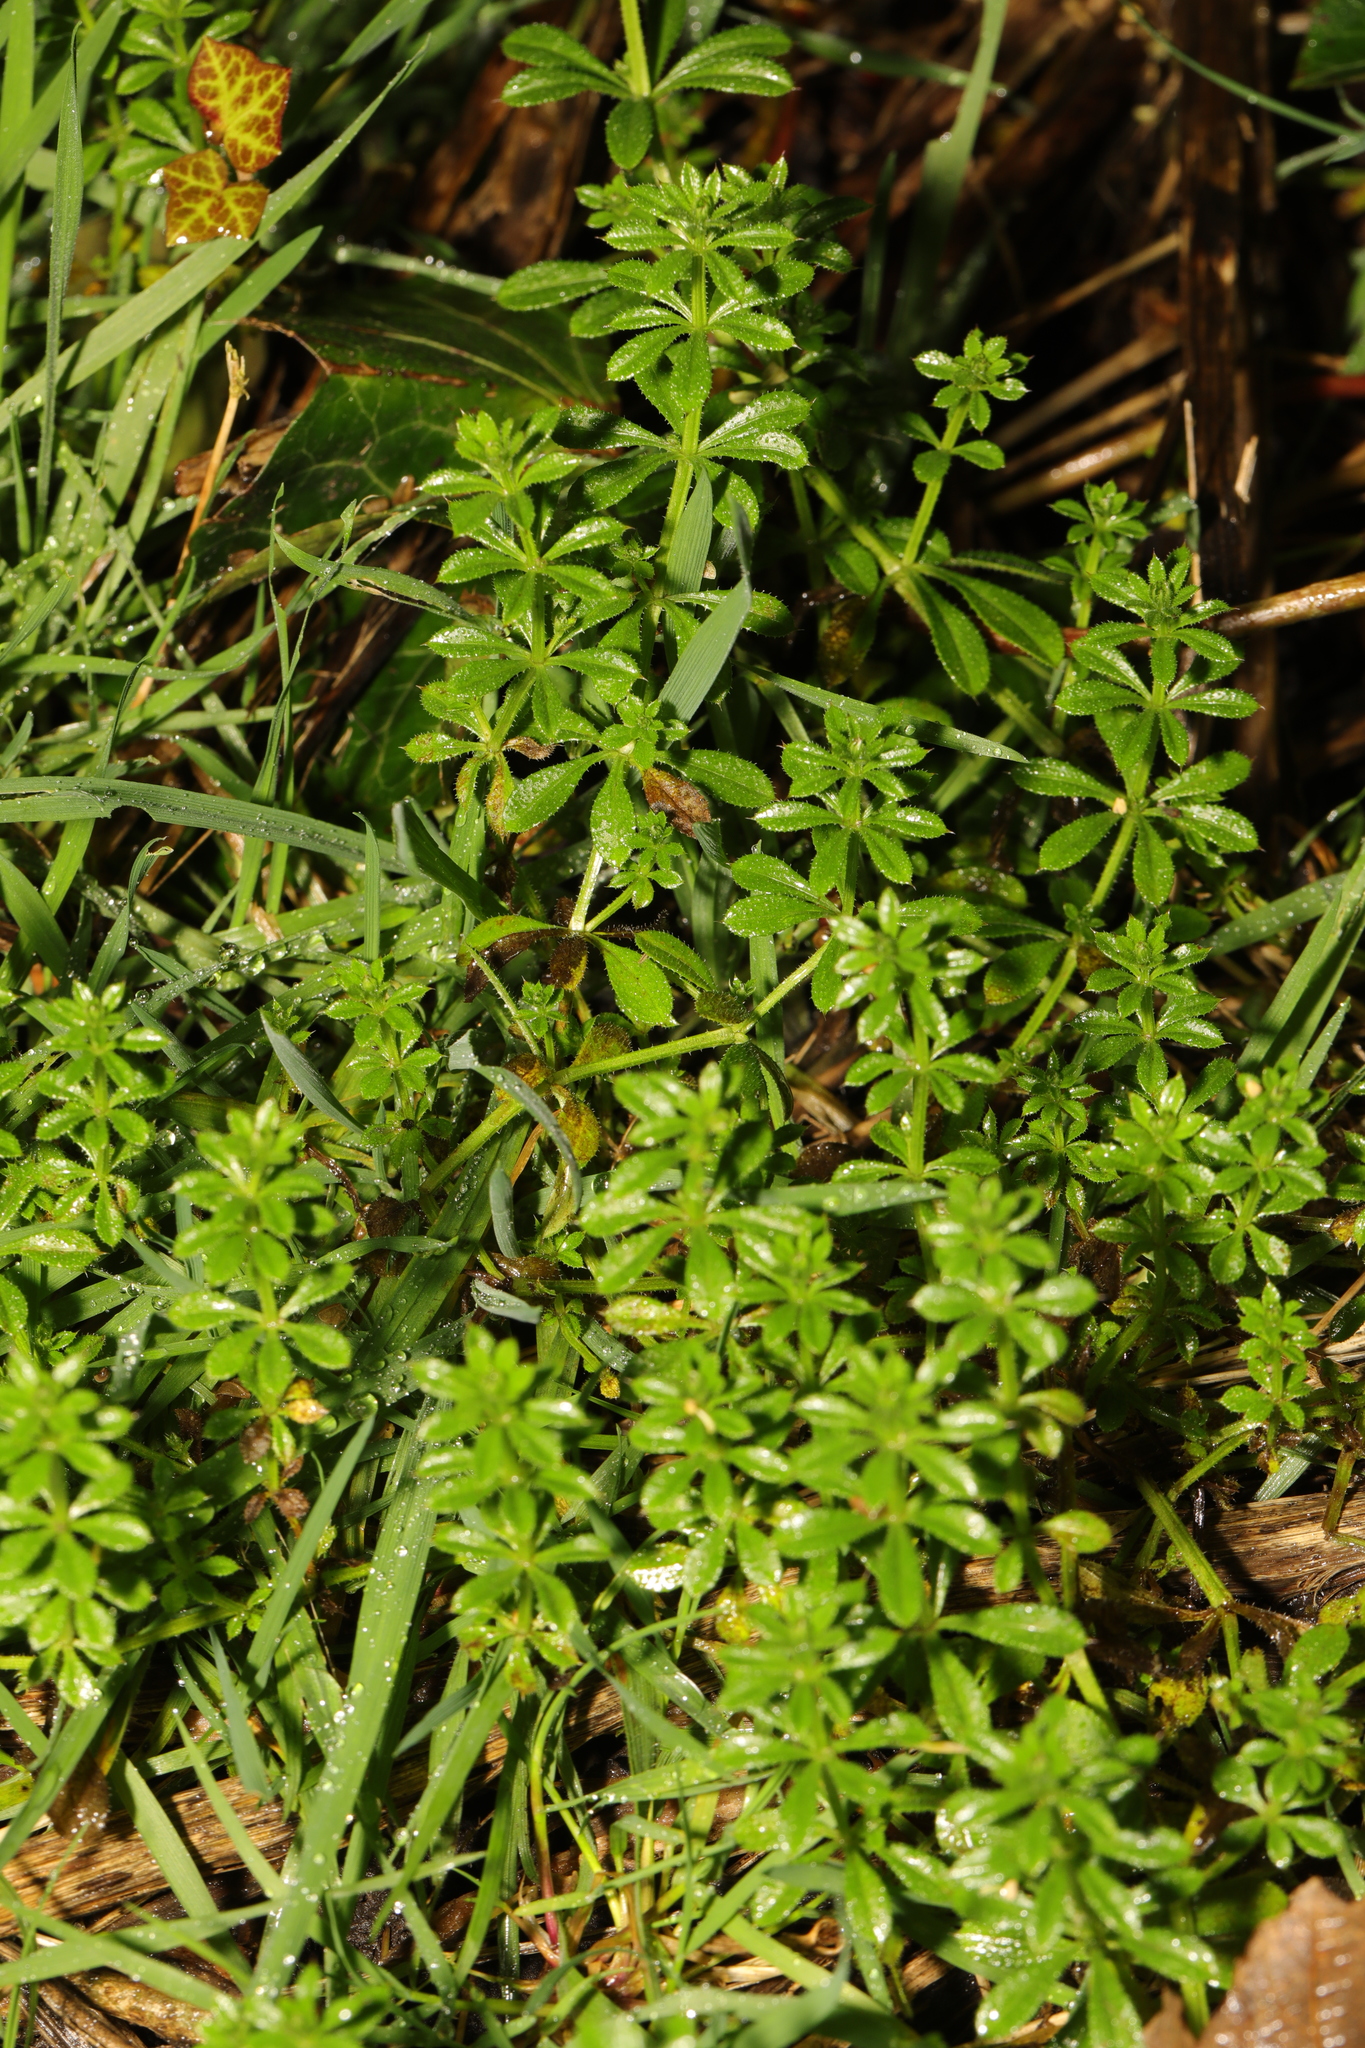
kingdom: Plantae
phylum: Tracheophyta
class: Magnoliopsida
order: Gentianales
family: Rubiaceae
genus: Galium
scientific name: Galium aparine
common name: Cleavers
